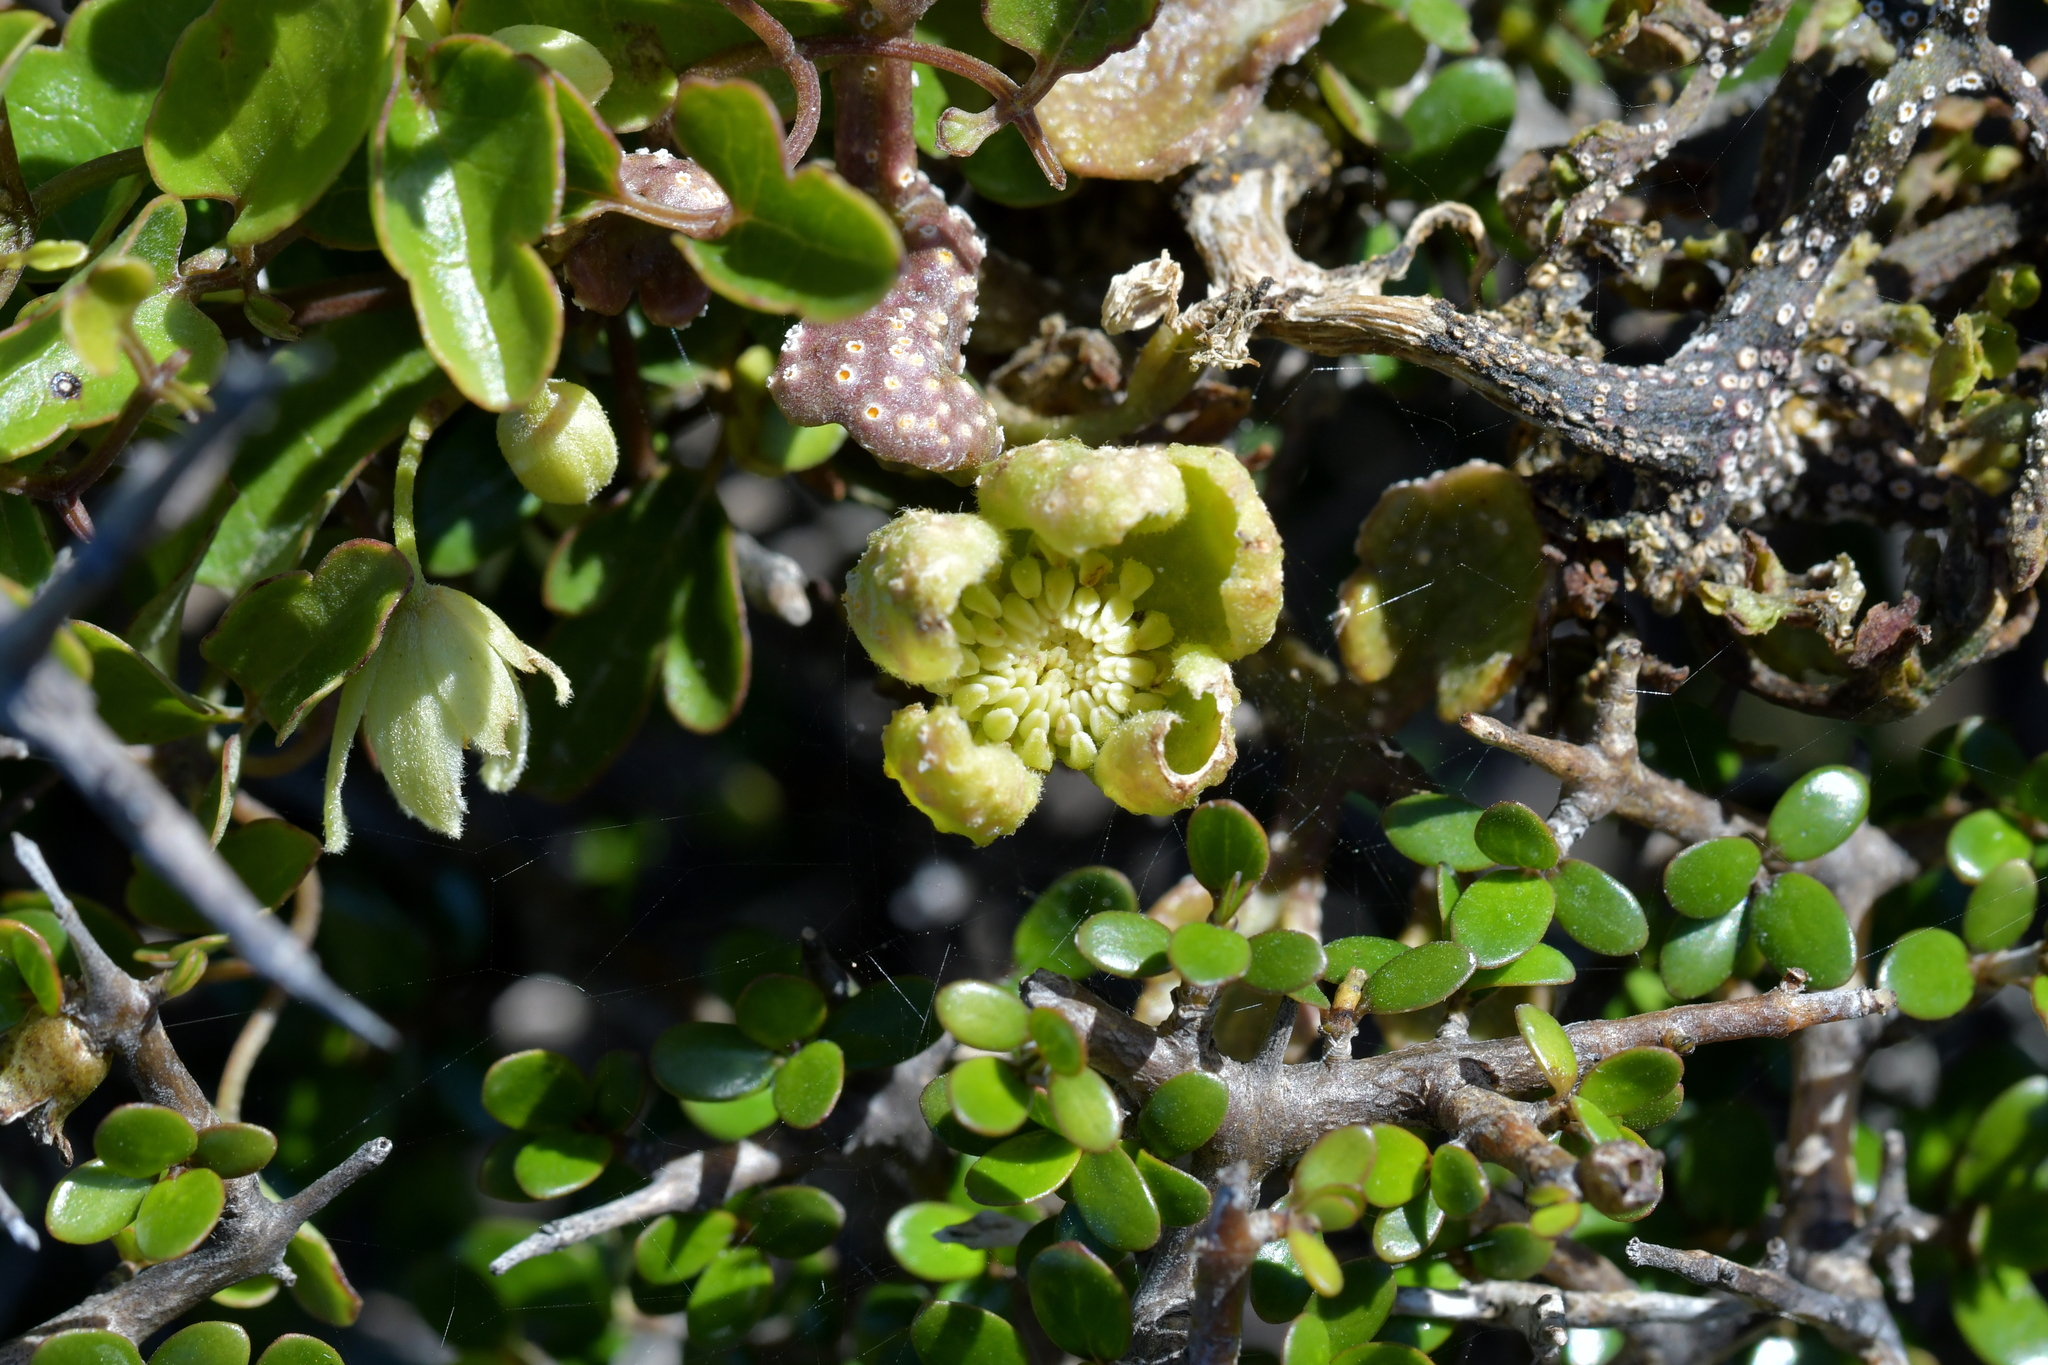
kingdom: Fungi
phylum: Basidiomycota
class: Pucciniomycetes
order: Pucciniales
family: Pucciniaceae
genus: Puccinia
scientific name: Puccinia otagensis
